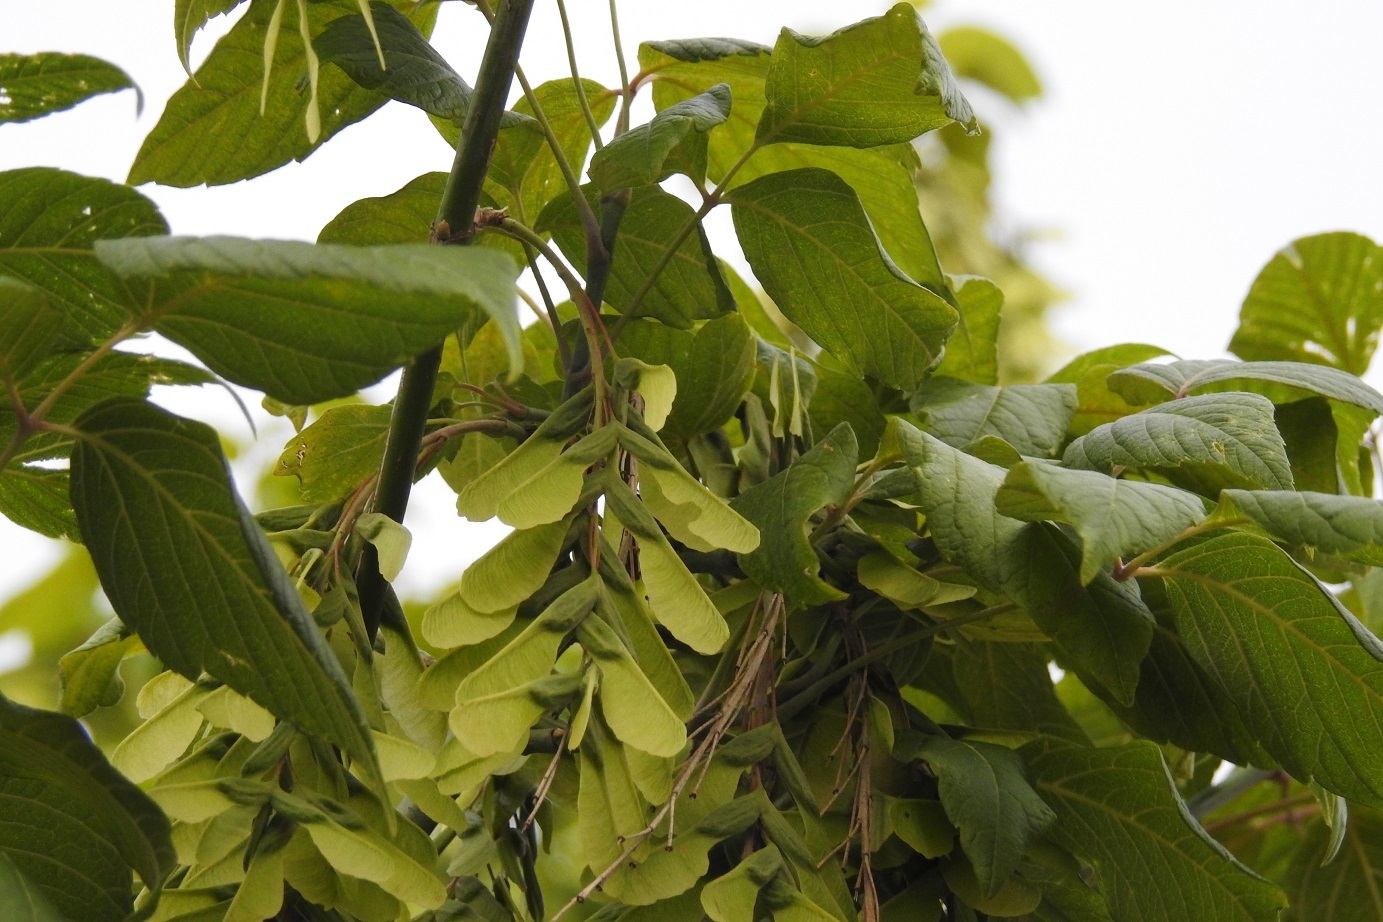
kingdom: Plantae
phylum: Tracheophyta
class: Magnoliopsida
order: Sapindales
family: Sapindaceae
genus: Acer
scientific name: Acer negundo
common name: Ashleaf maple
